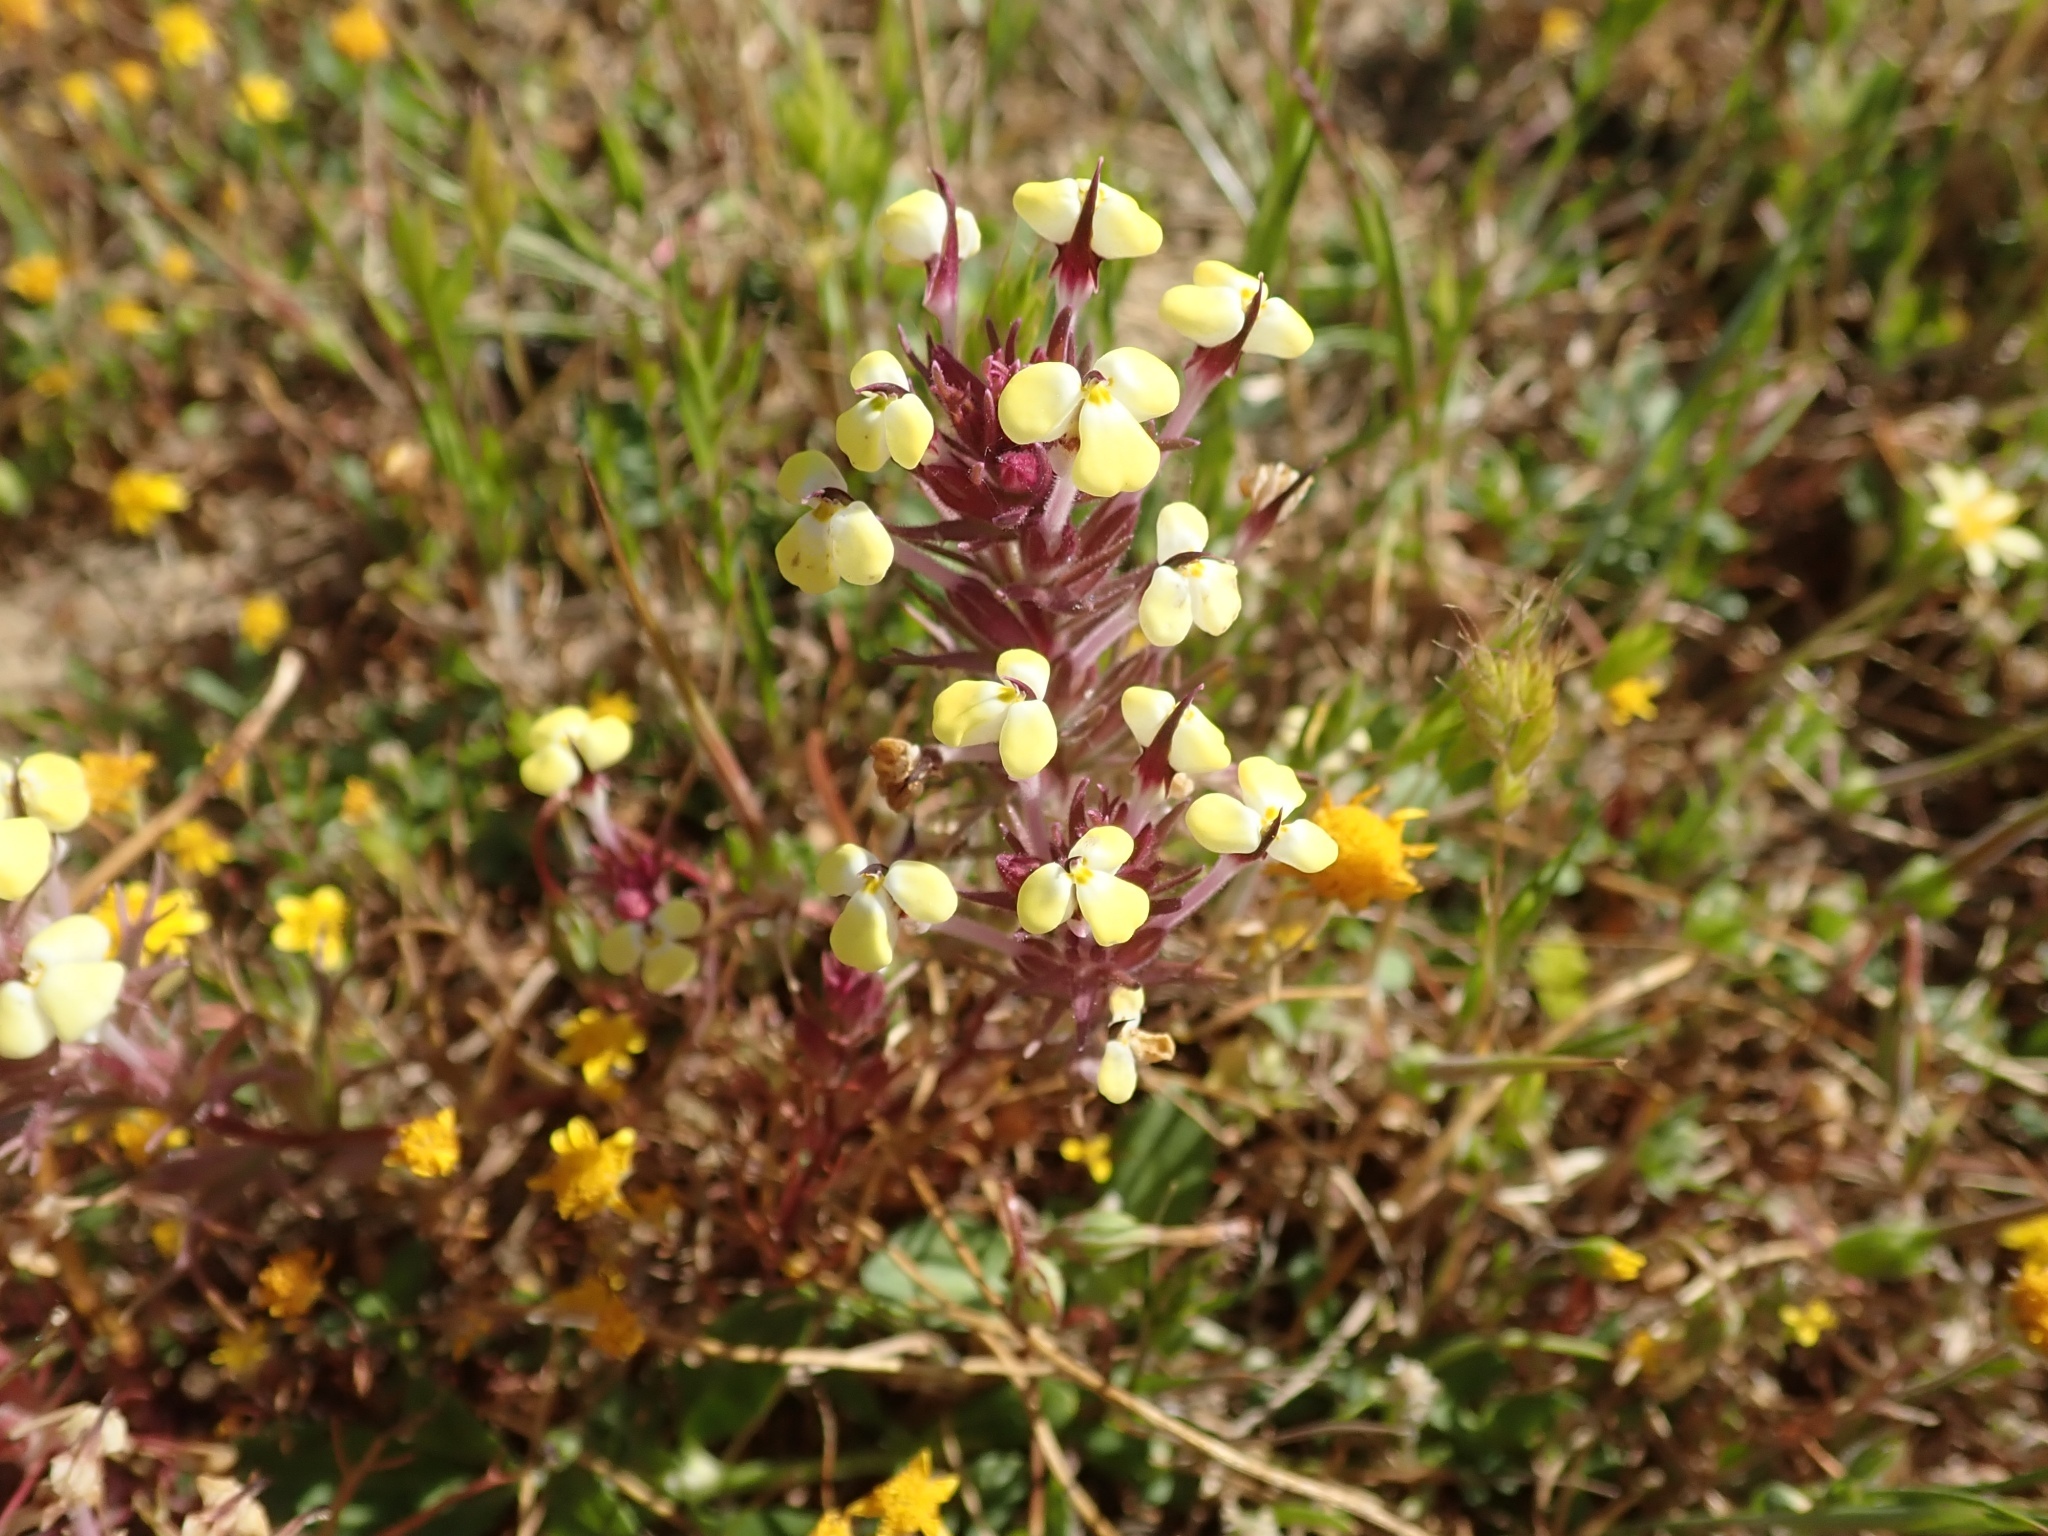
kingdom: Plantae
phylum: Tracheophyta
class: Magnoliopsida
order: Lamiales
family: Orobanchaceae
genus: Triphysaria
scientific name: Triphysaria eriantha
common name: Johnny-tuck
